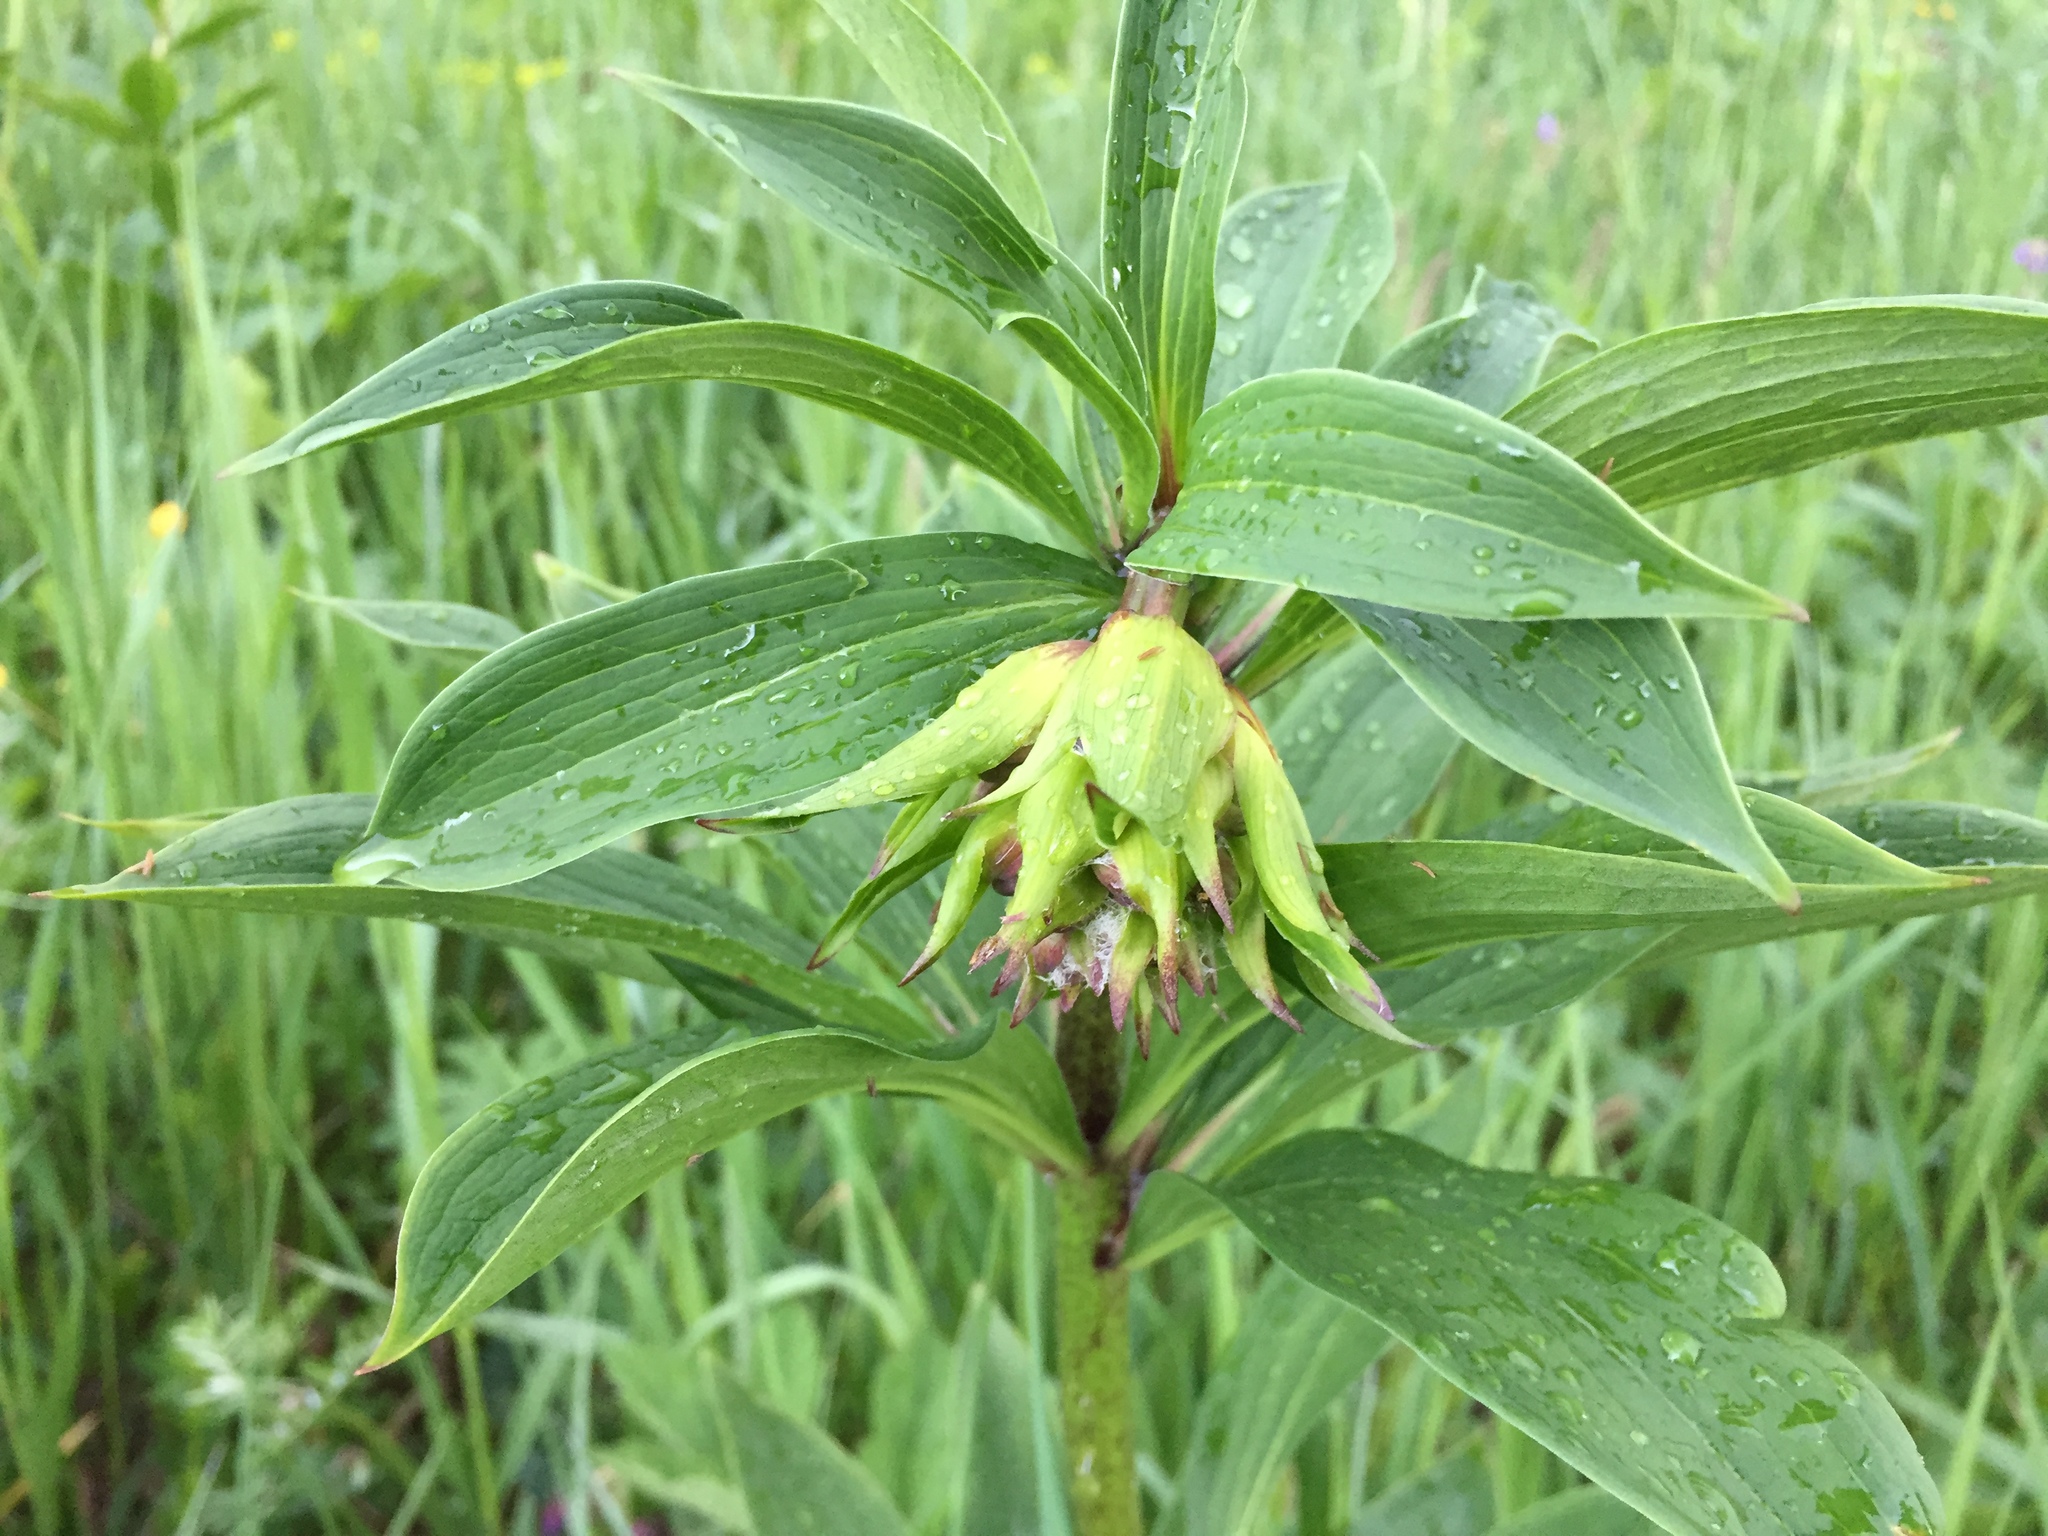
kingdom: Plantae
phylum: Tracheophyta
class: Liliopsida
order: Liliales
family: Liliaceae
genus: Lilium
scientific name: Lilium martagon
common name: Martagon lily
